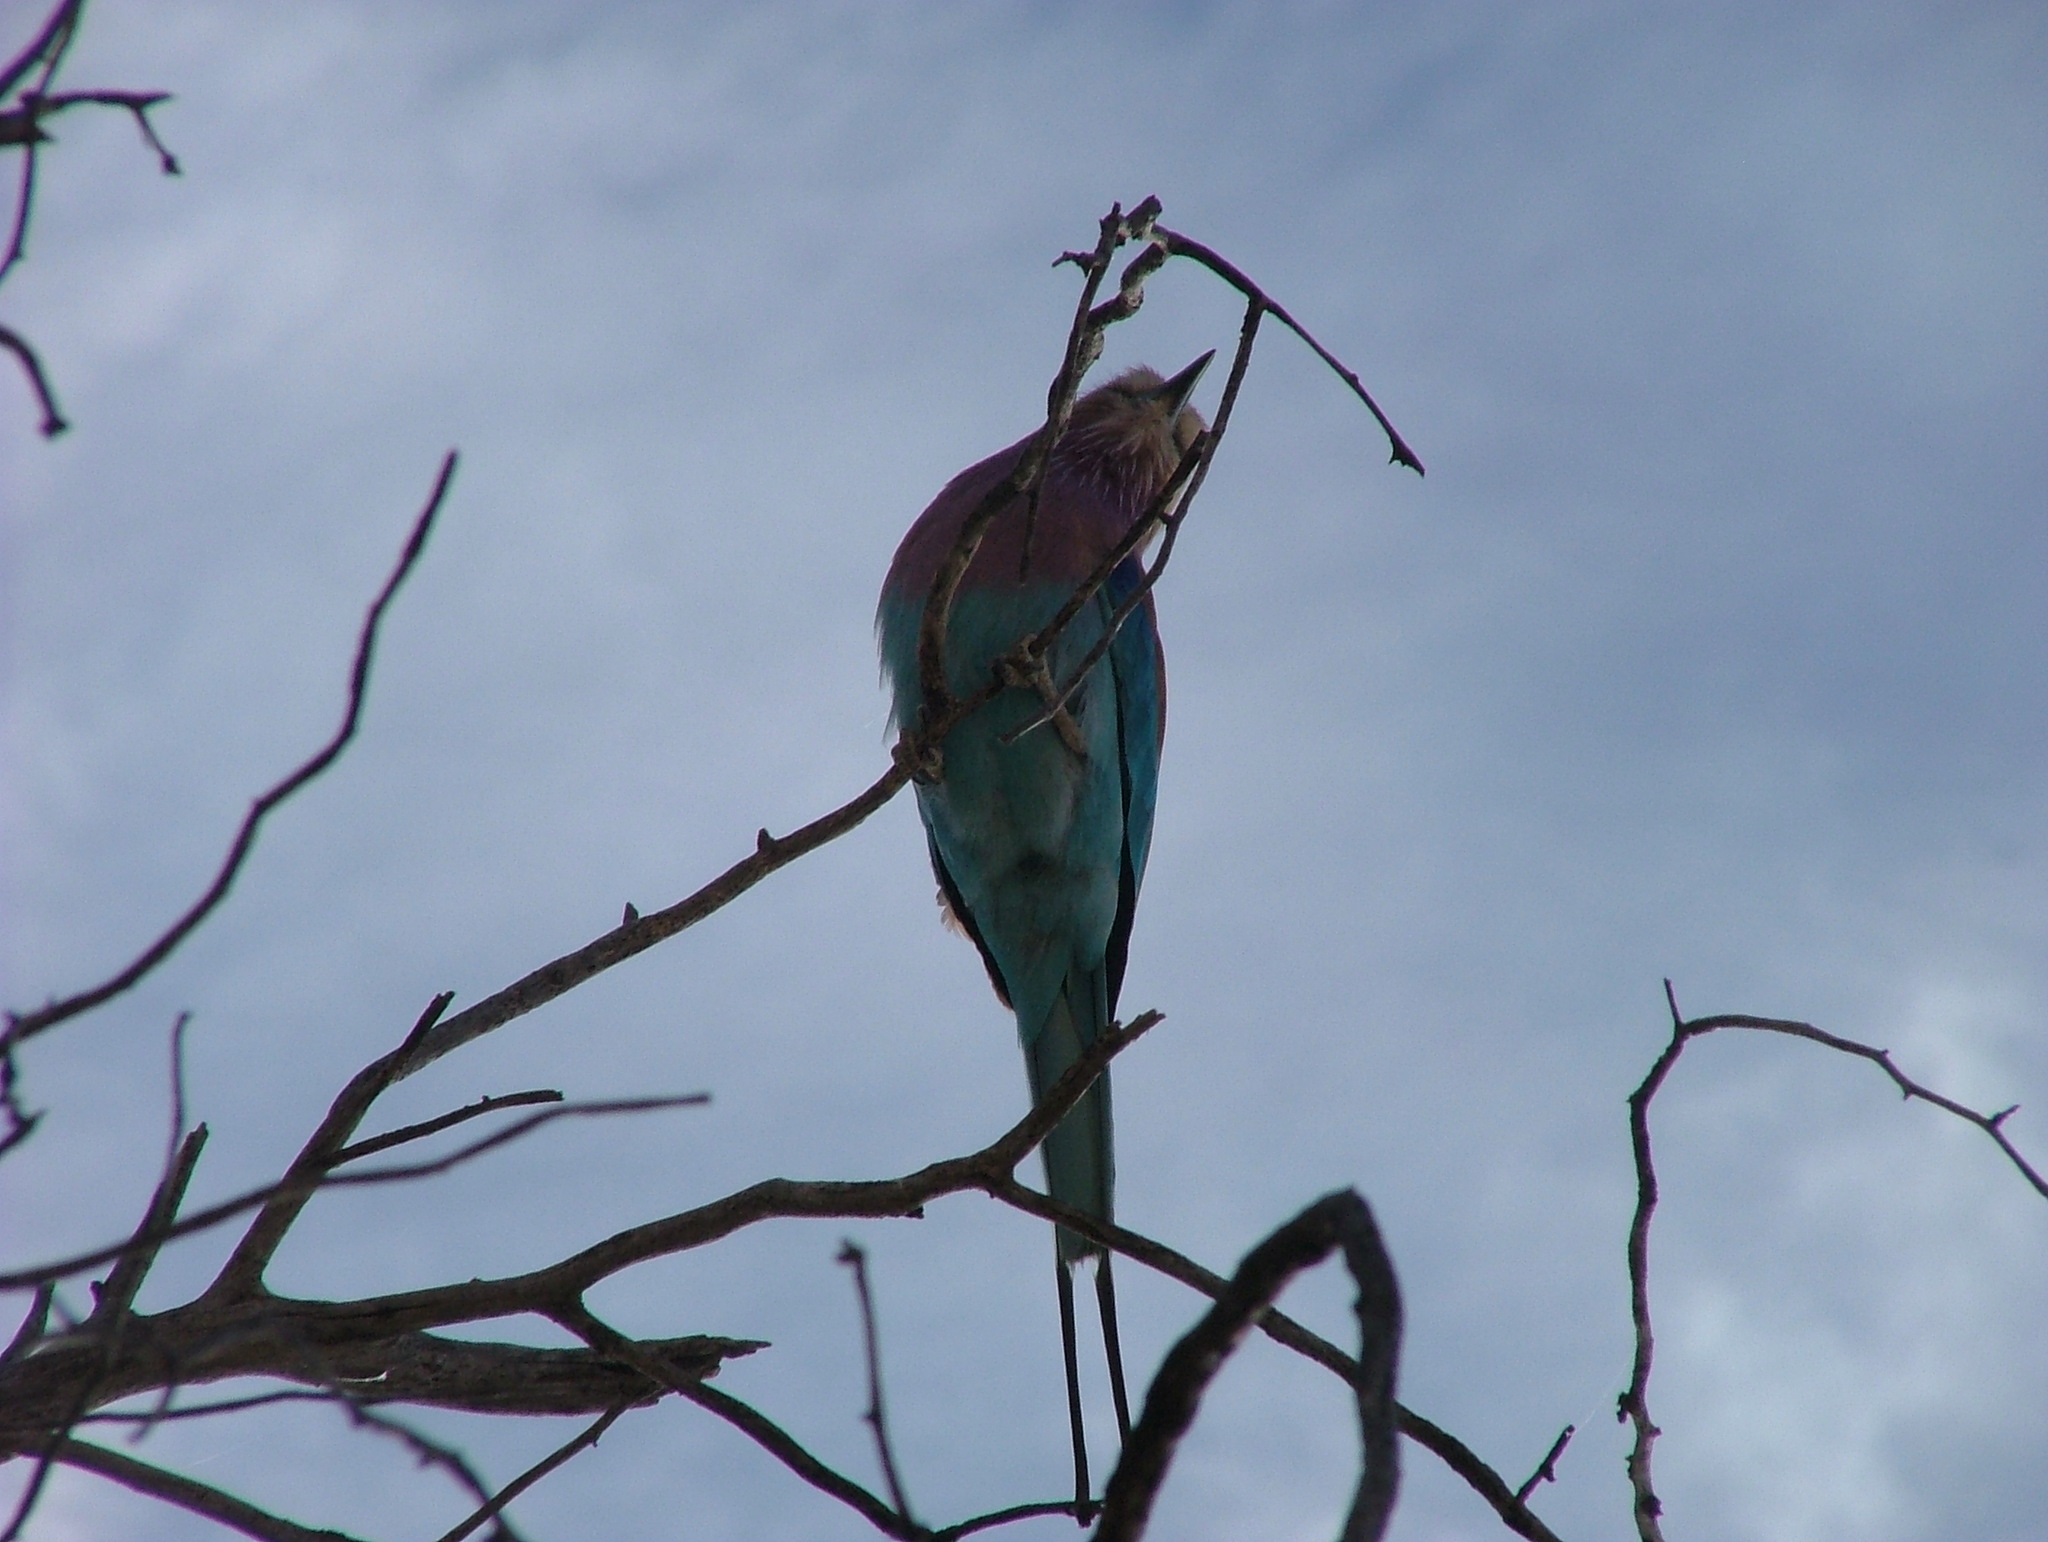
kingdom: Animalia
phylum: Chordata
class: Aves
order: Coraciiformes
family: Coraciidae
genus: Coracias
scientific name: Coracias caudatus
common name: Lilac-breasted roller
